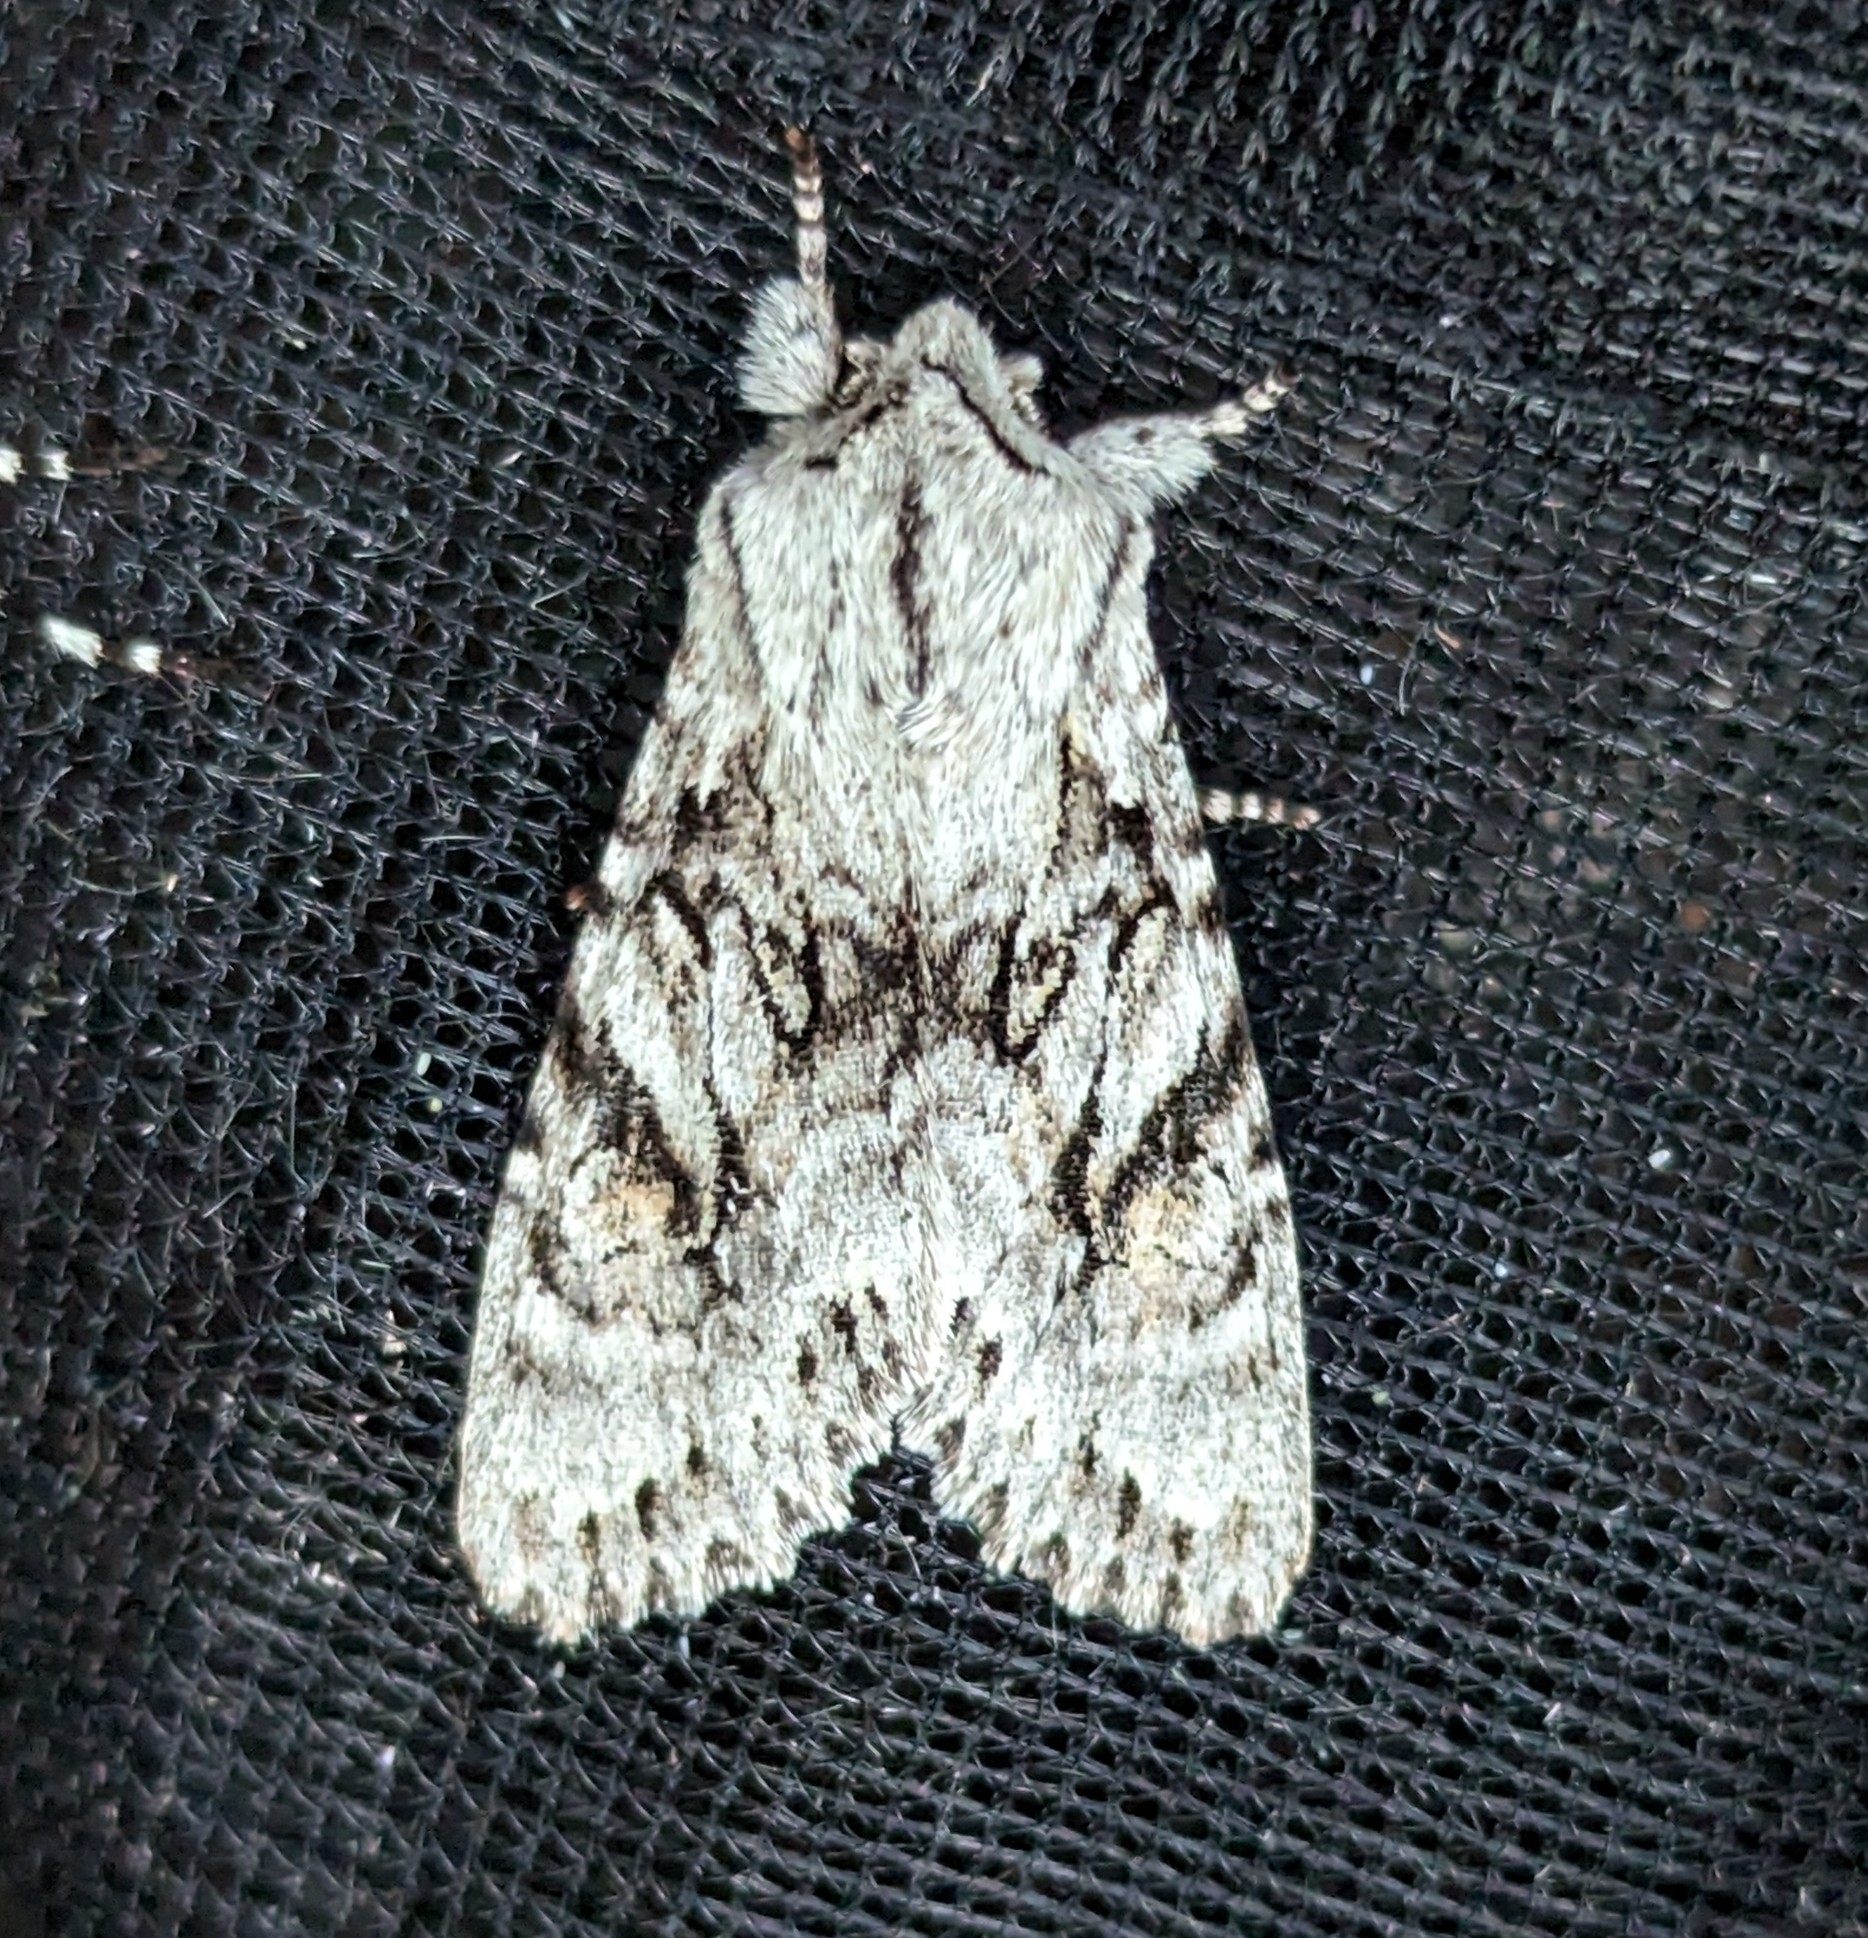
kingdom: Animalia
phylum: Arthropoda
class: Insecta
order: Lepidoptera
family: Noctuidae
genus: Egira
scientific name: Egira simplex
